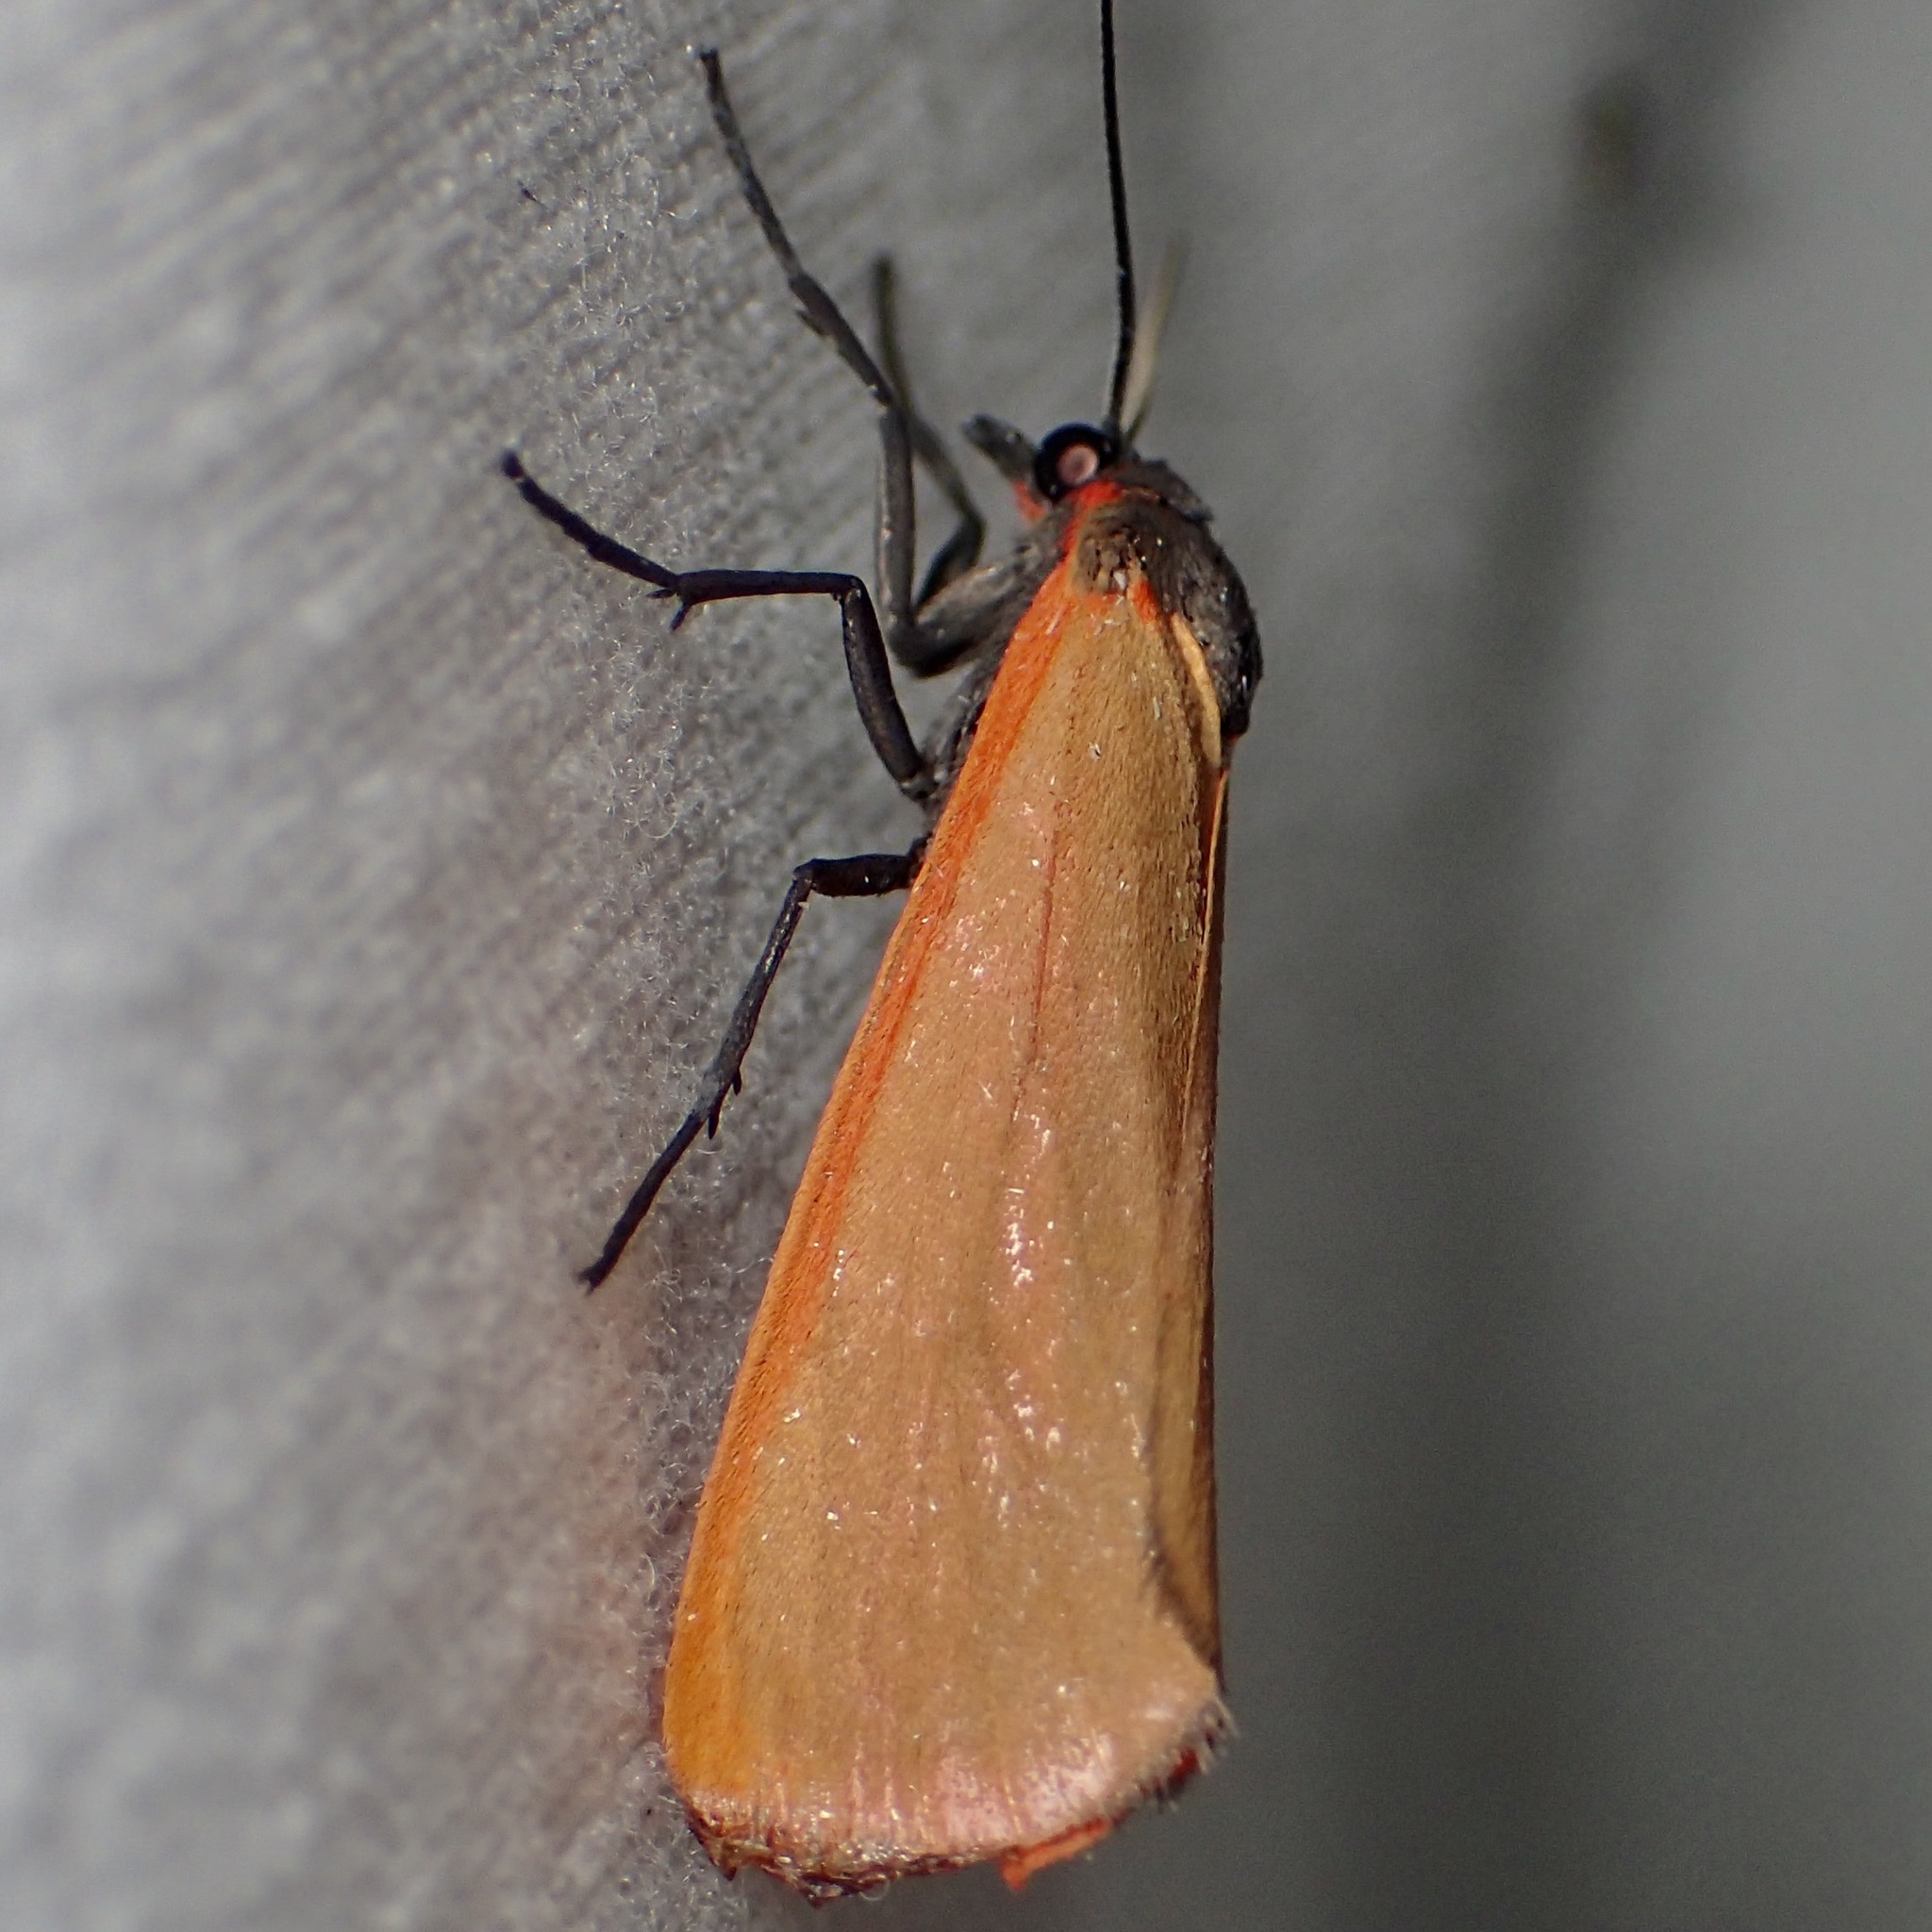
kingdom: Animalia
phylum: Arthropoda
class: Insecta
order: Lepidoptera
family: Erebidae
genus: Virbia
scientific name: Virbia ostenta
